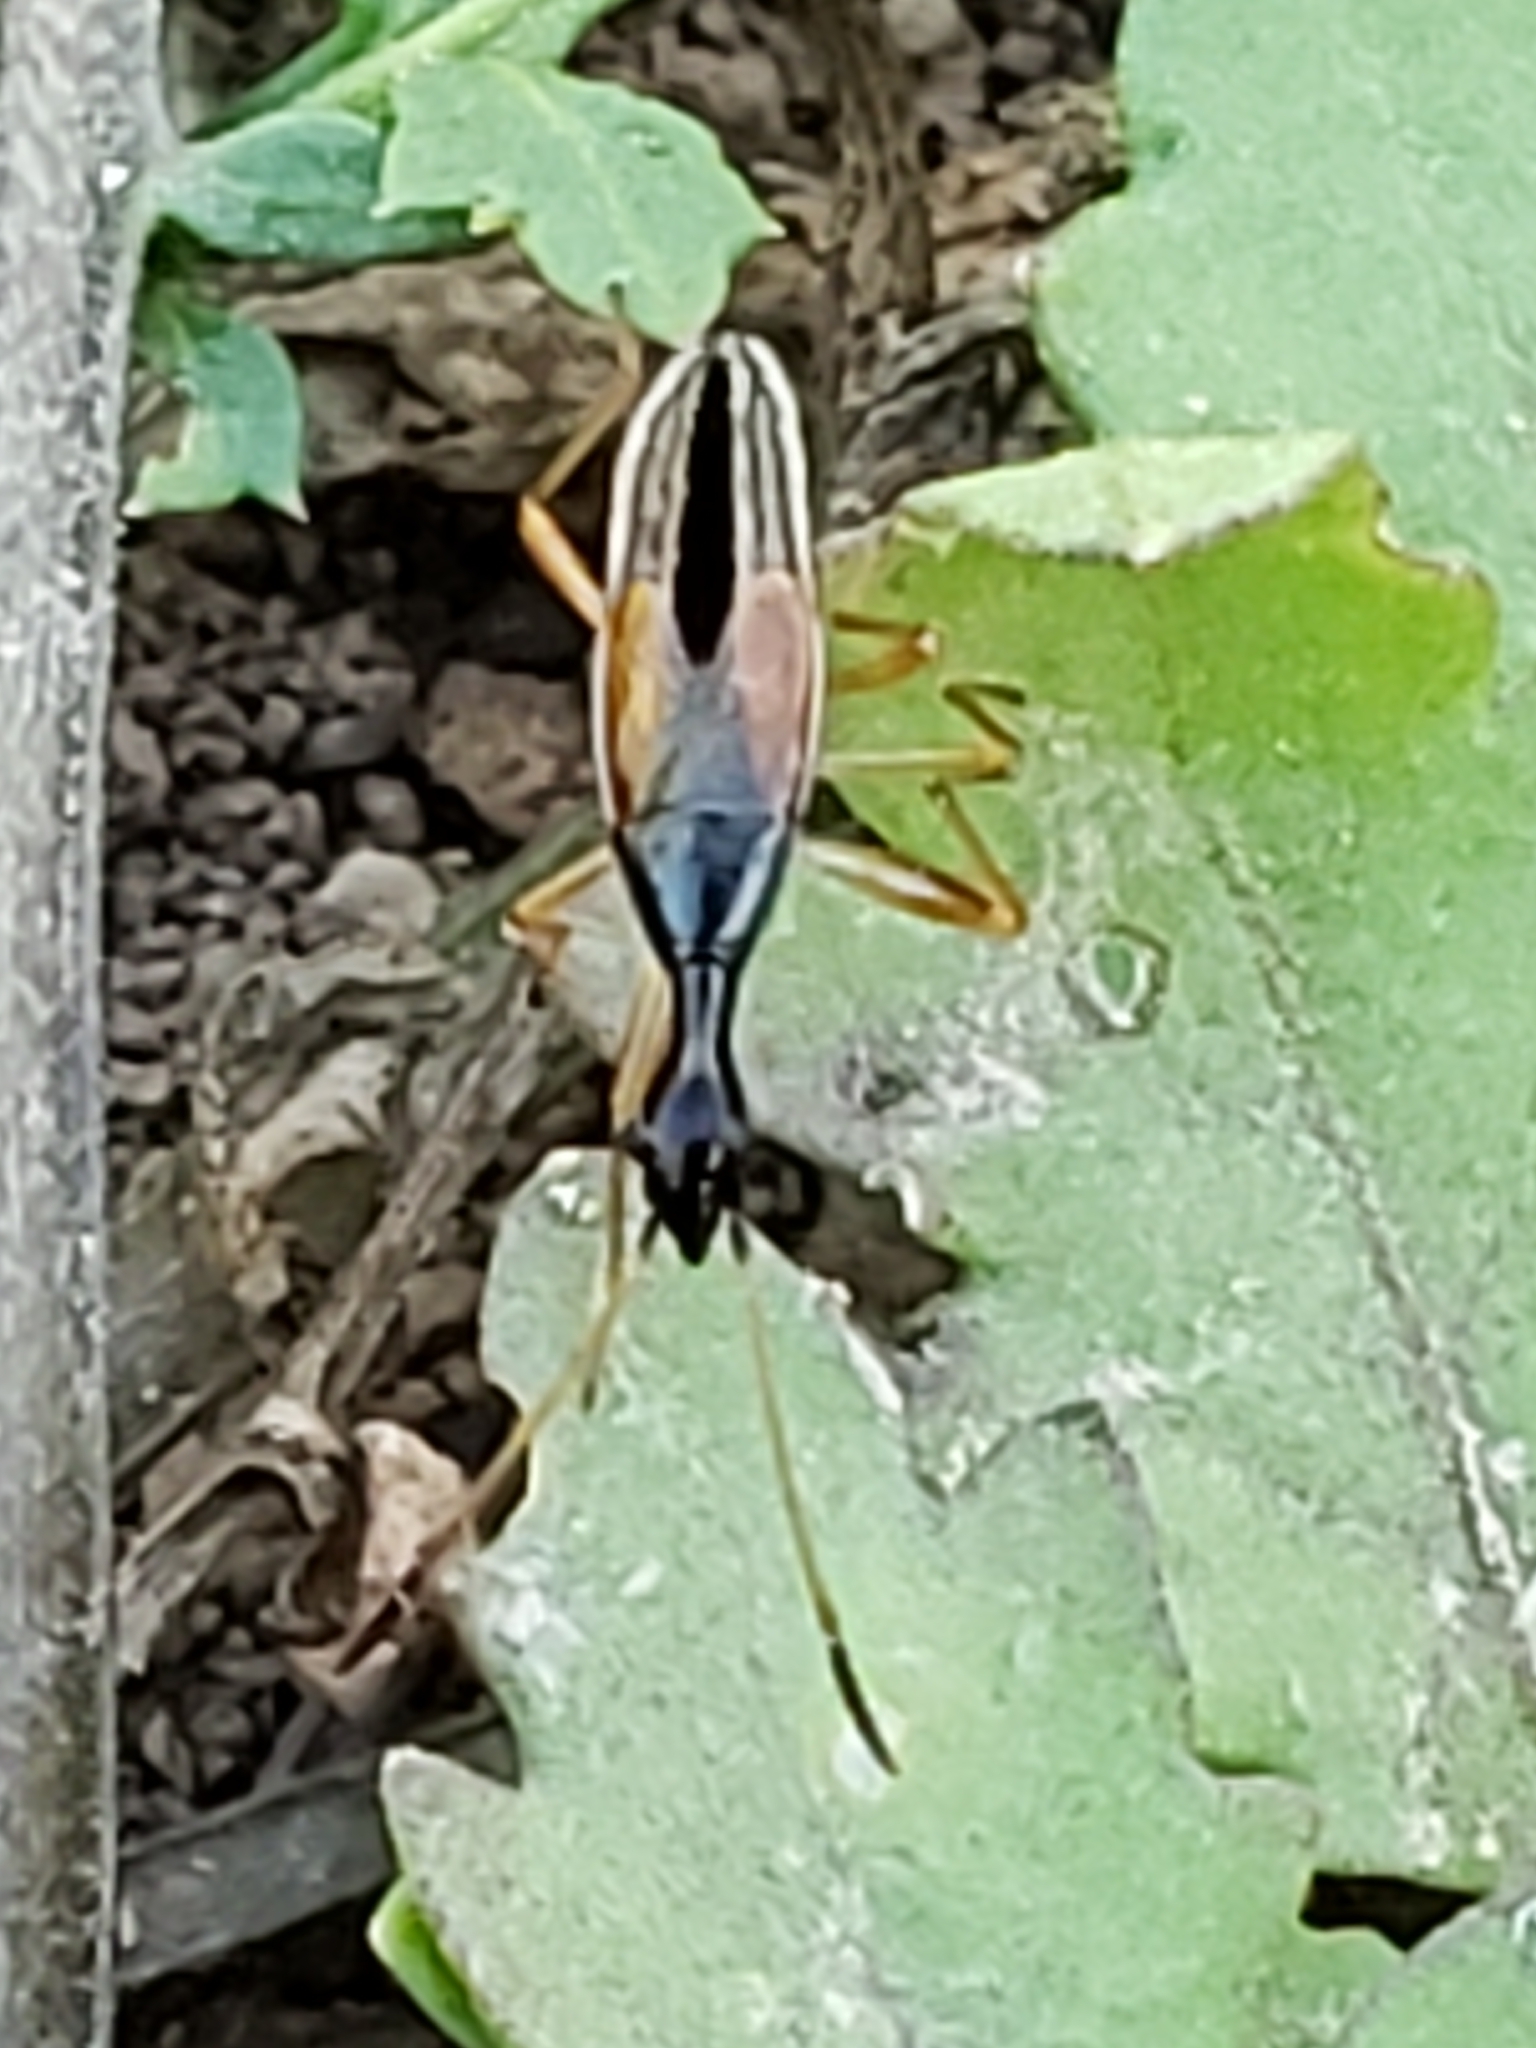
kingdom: Animalia
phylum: Arthropoda
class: Insecta
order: Hemiptera
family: Rhyparochromidae
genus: Myodocha
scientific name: Myodocha serripes
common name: Long-necked seed bug
